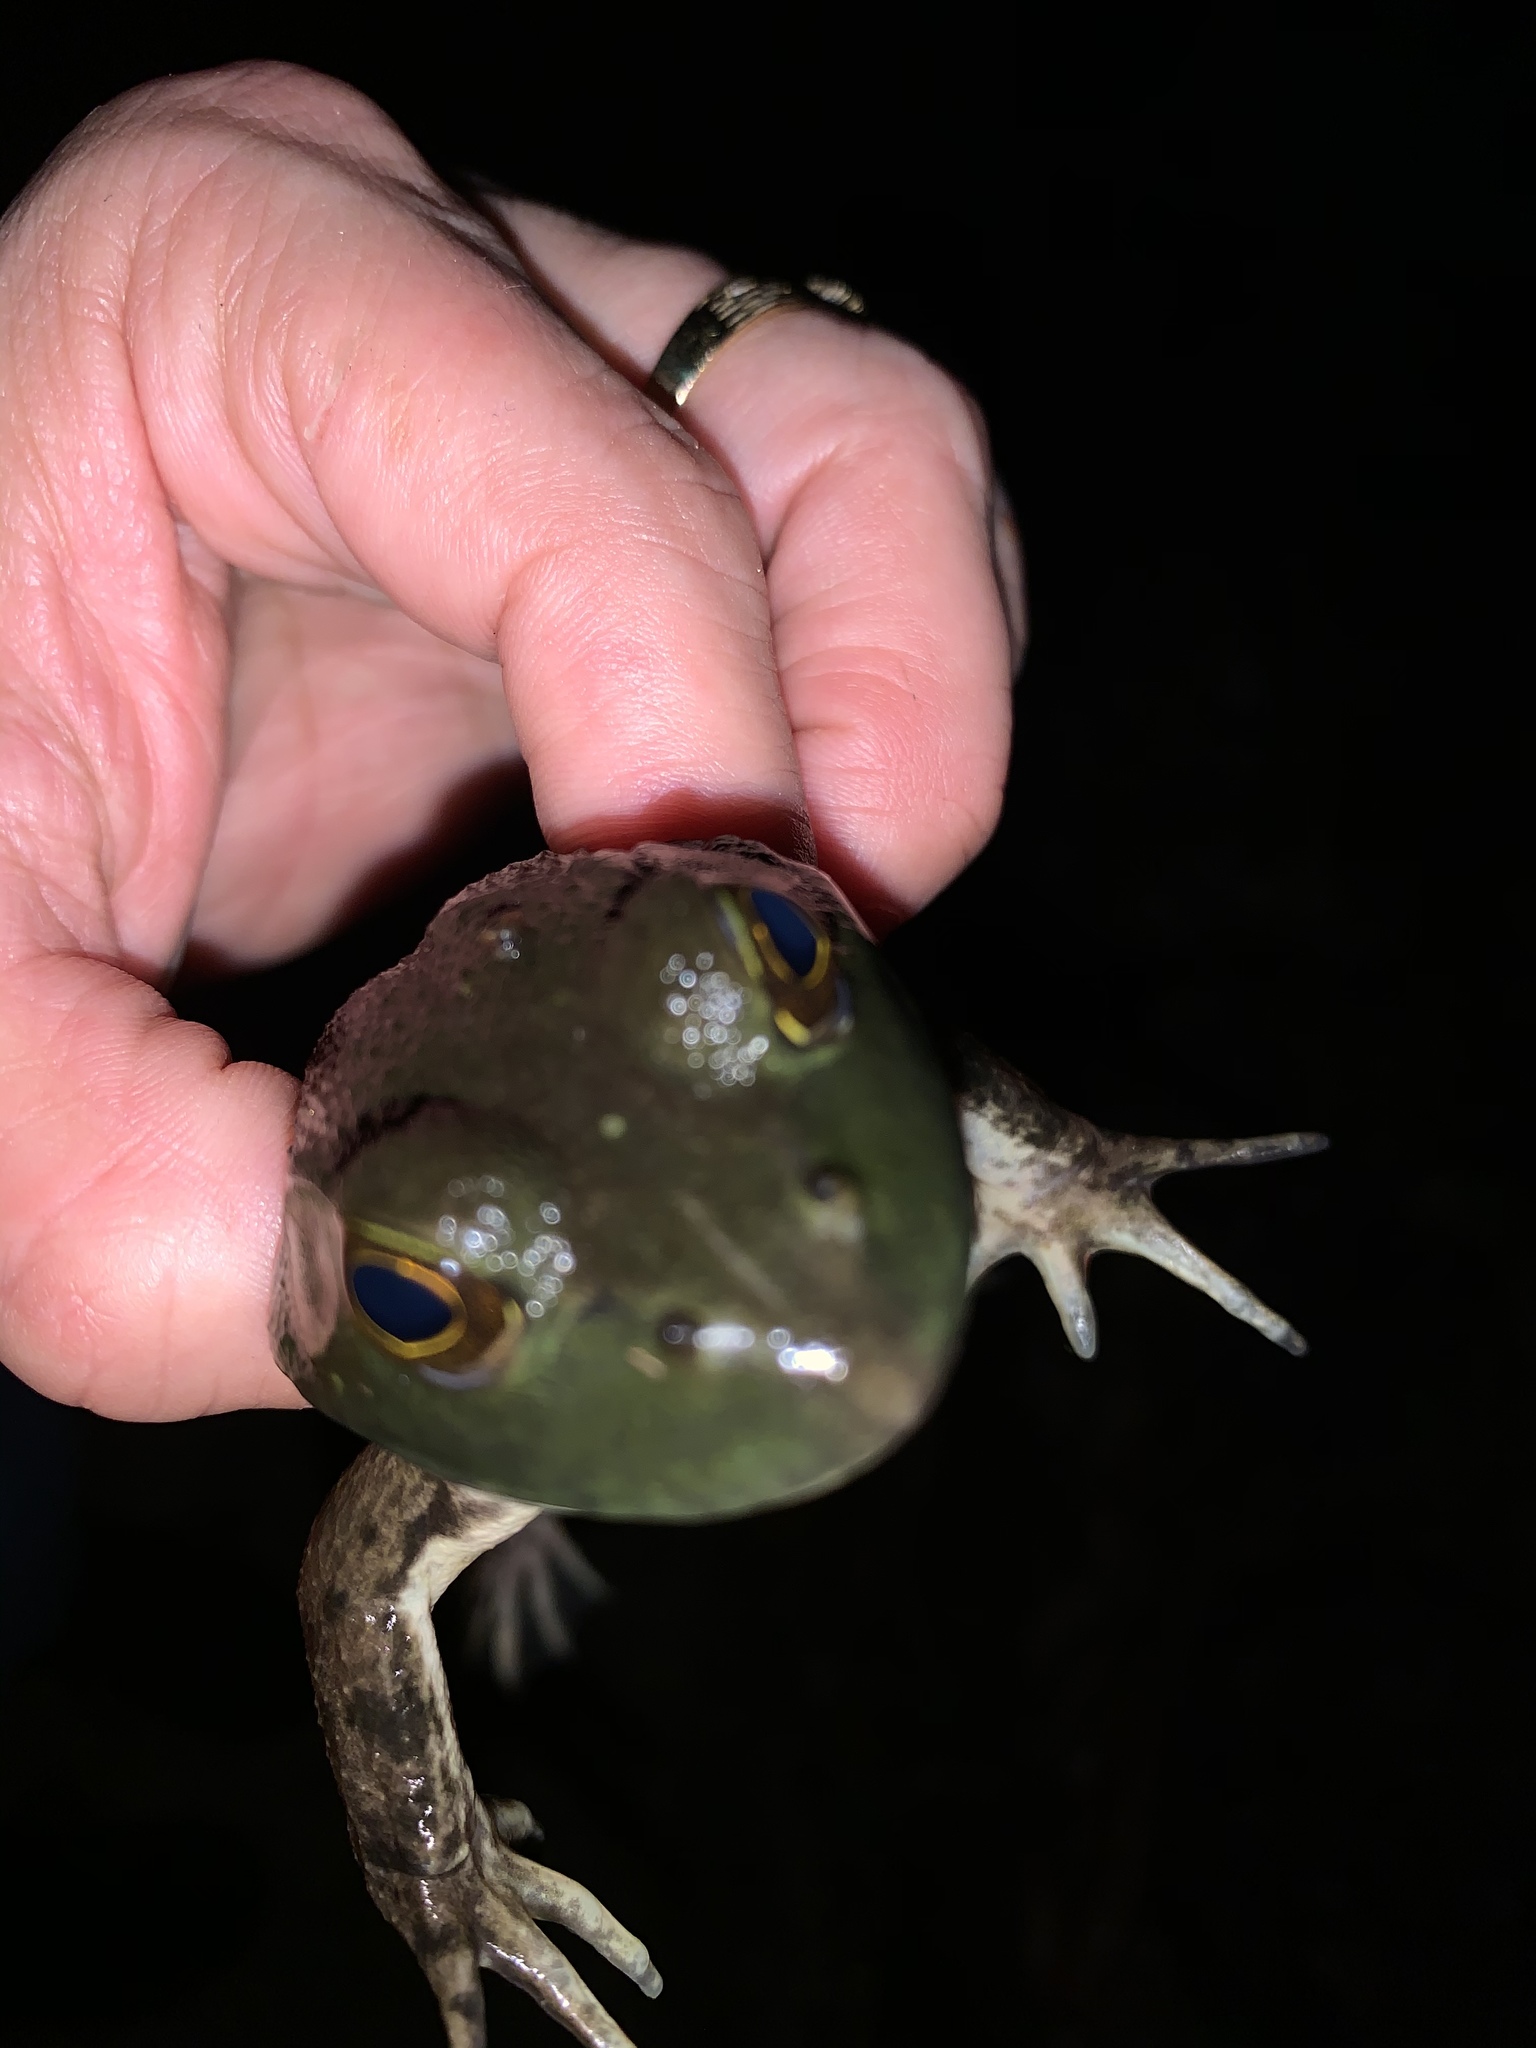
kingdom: Animalia
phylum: Chordata
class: Amphibia
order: Anura
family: Ranidae
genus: Lithobates
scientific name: Lithobates catesbeianus
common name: American bullfrog
